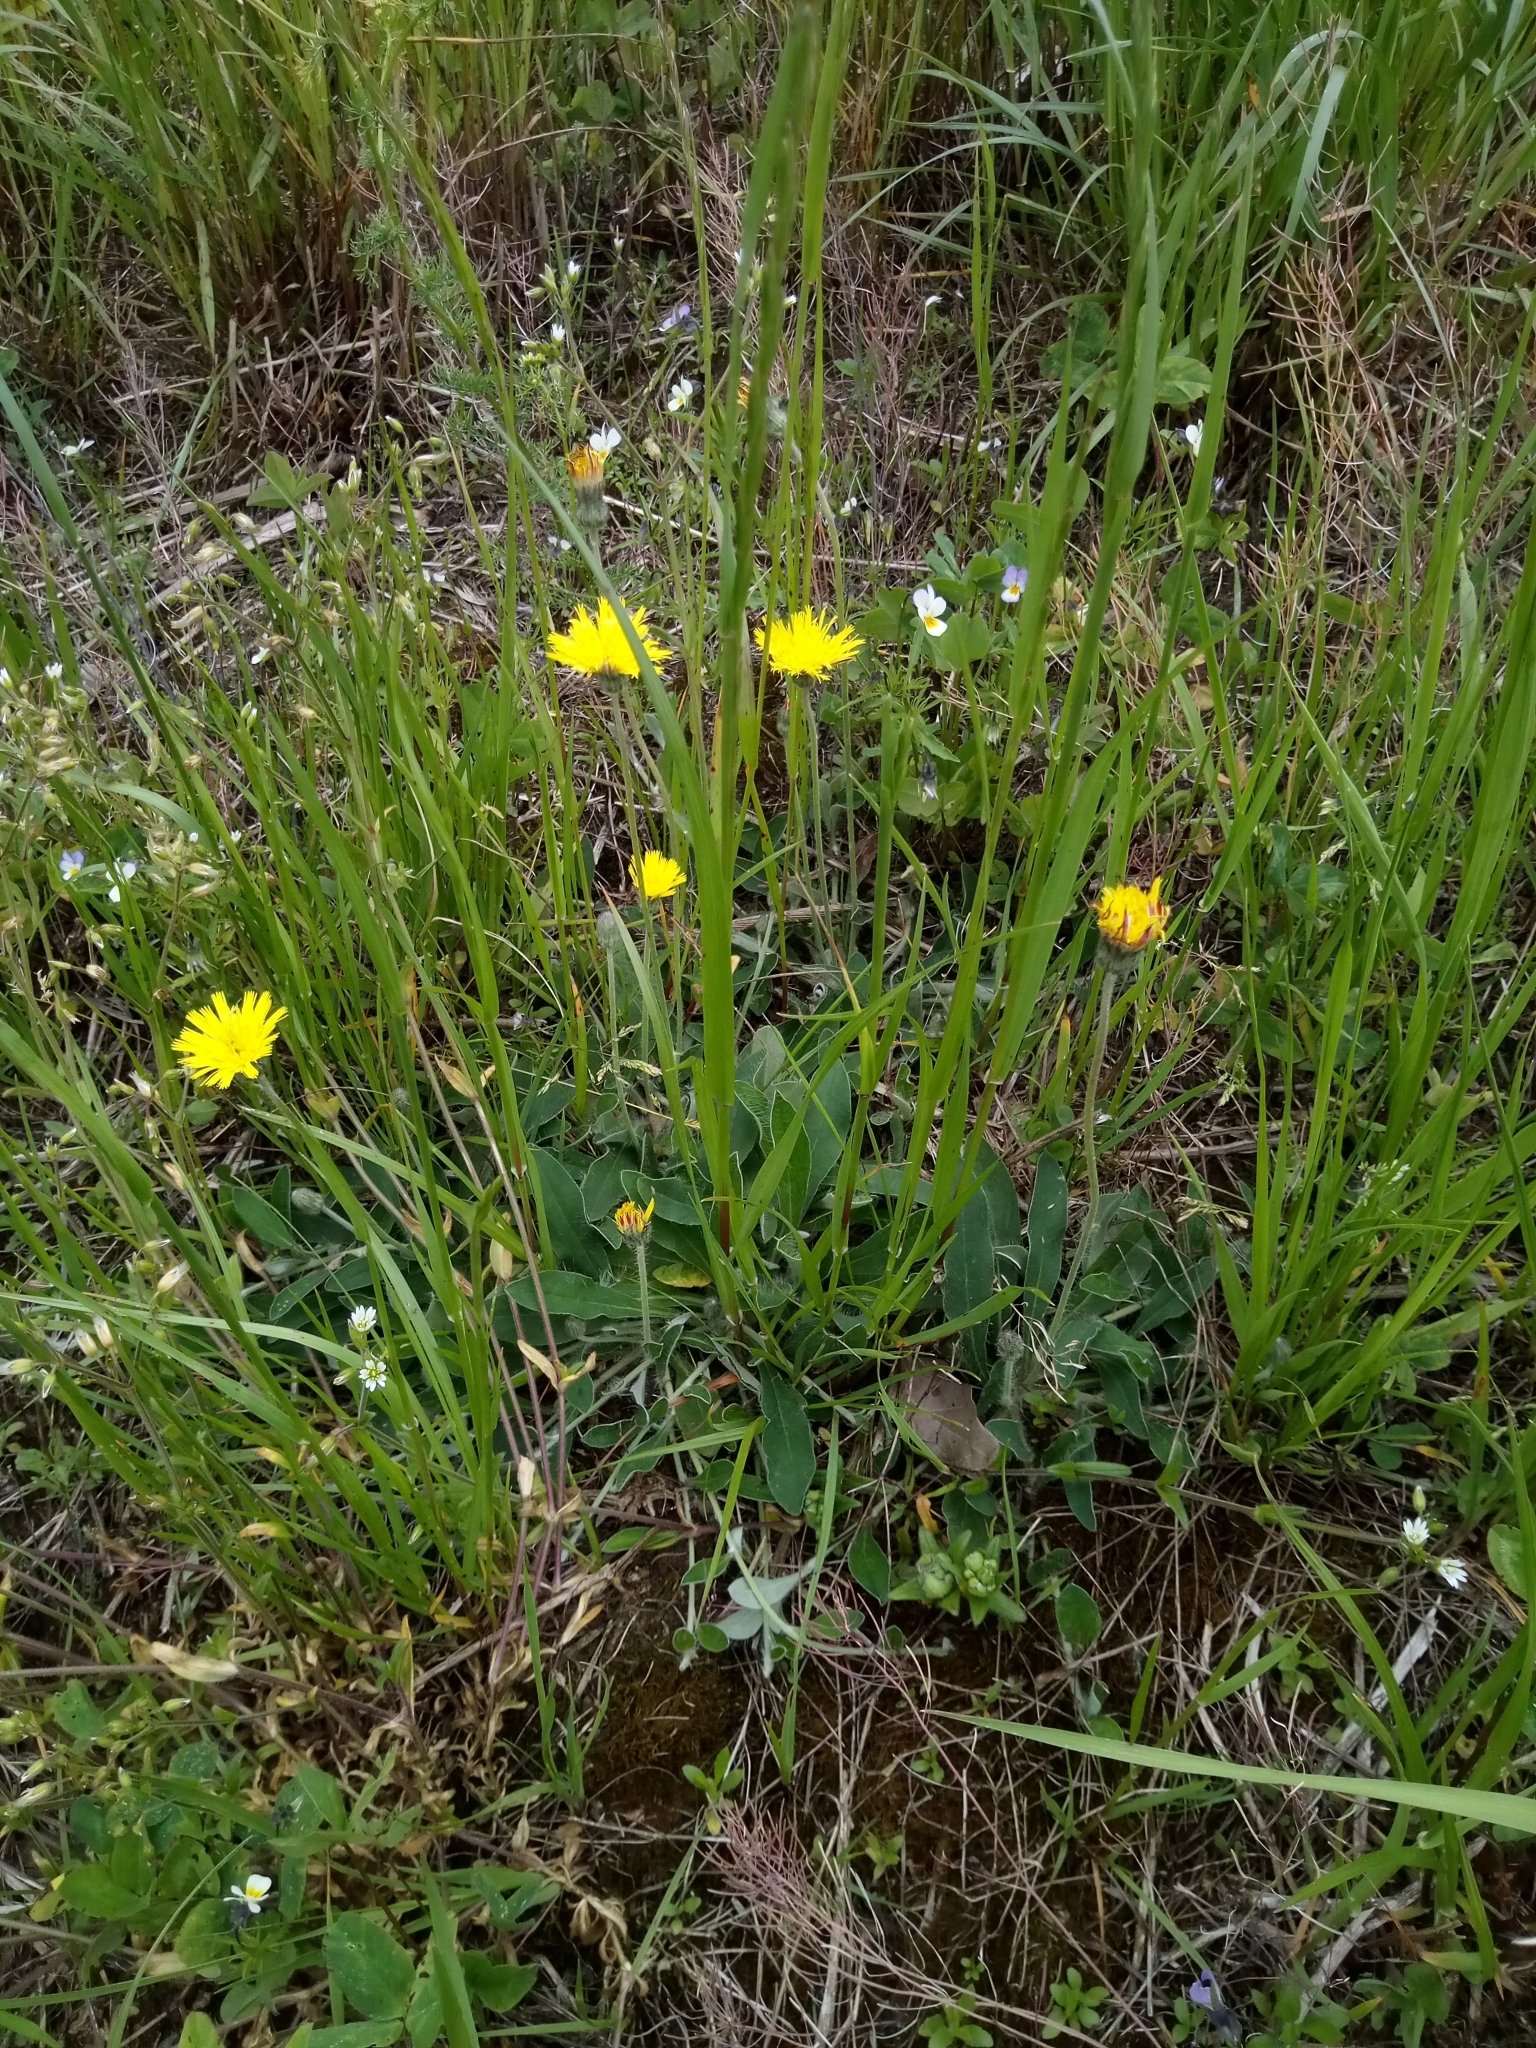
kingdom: Plantae
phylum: Tracheophyta
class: Magnoliopsida
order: Asterales
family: Asteraceae
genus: Pilosella
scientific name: Pilosella officinarum
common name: Mouse-ear hawkweed
